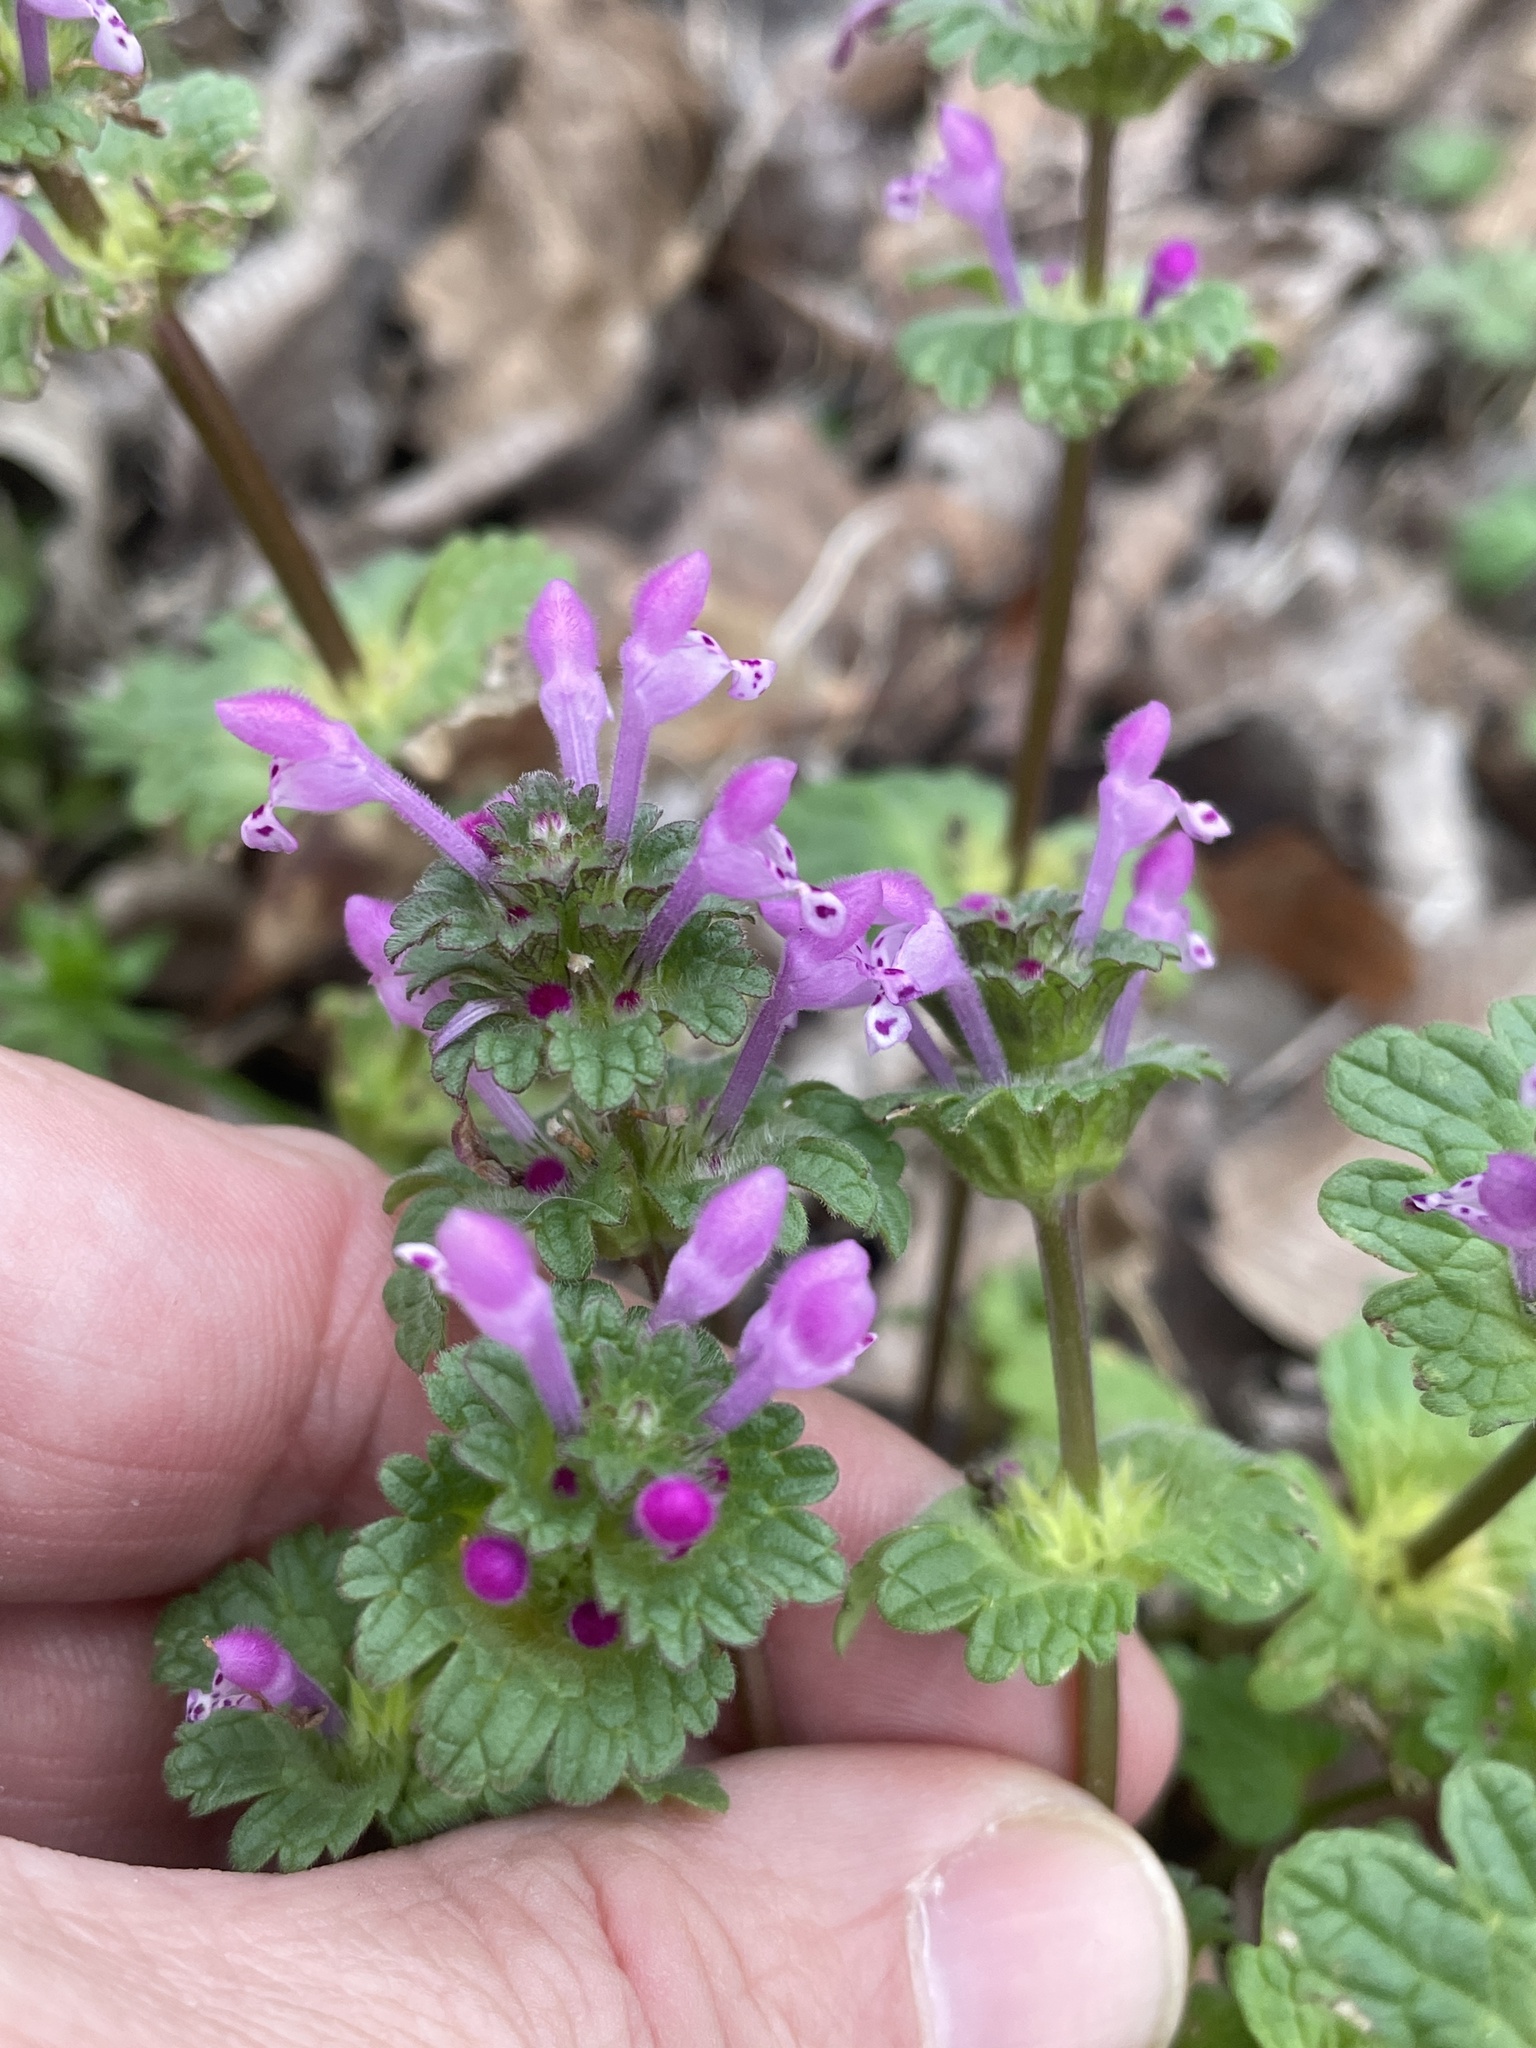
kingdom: Plantae
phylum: Tracheophyta
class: Magnoliopsida
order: Lamiales
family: Lamiaceae
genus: Lamium
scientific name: Lamium amplexicaule
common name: Henbit dead-nettle
